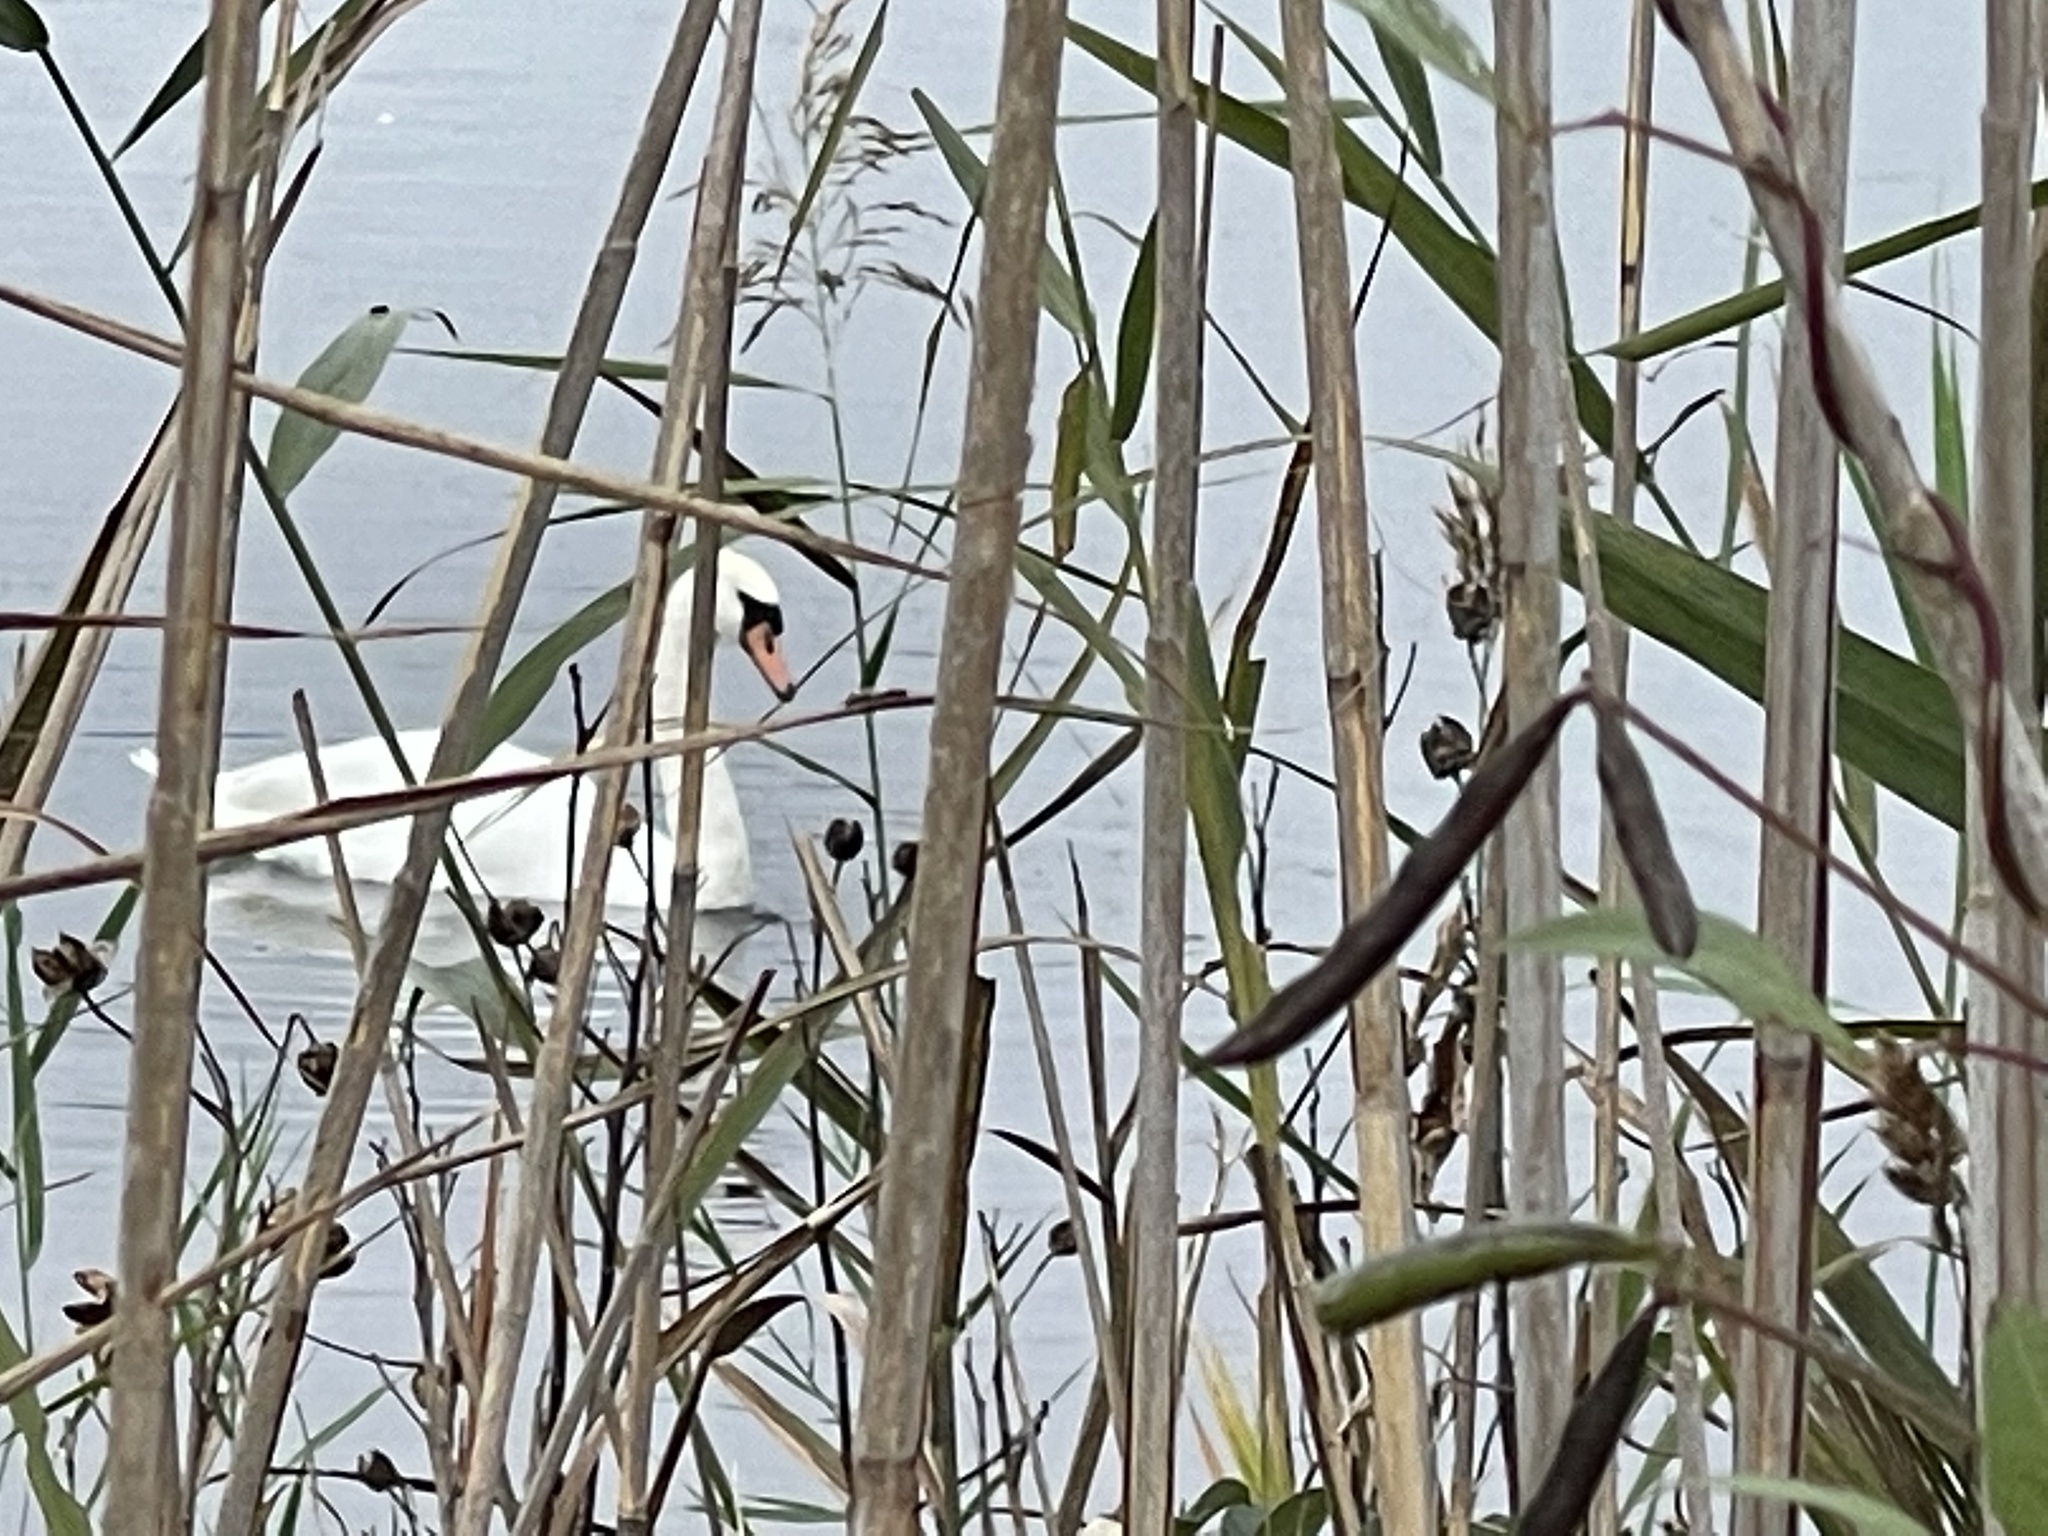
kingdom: Animalia
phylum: Chordata
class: Aves
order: Anseriformes
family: Anatidae
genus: Cygnus
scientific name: Cygnus olor
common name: Mute swan
